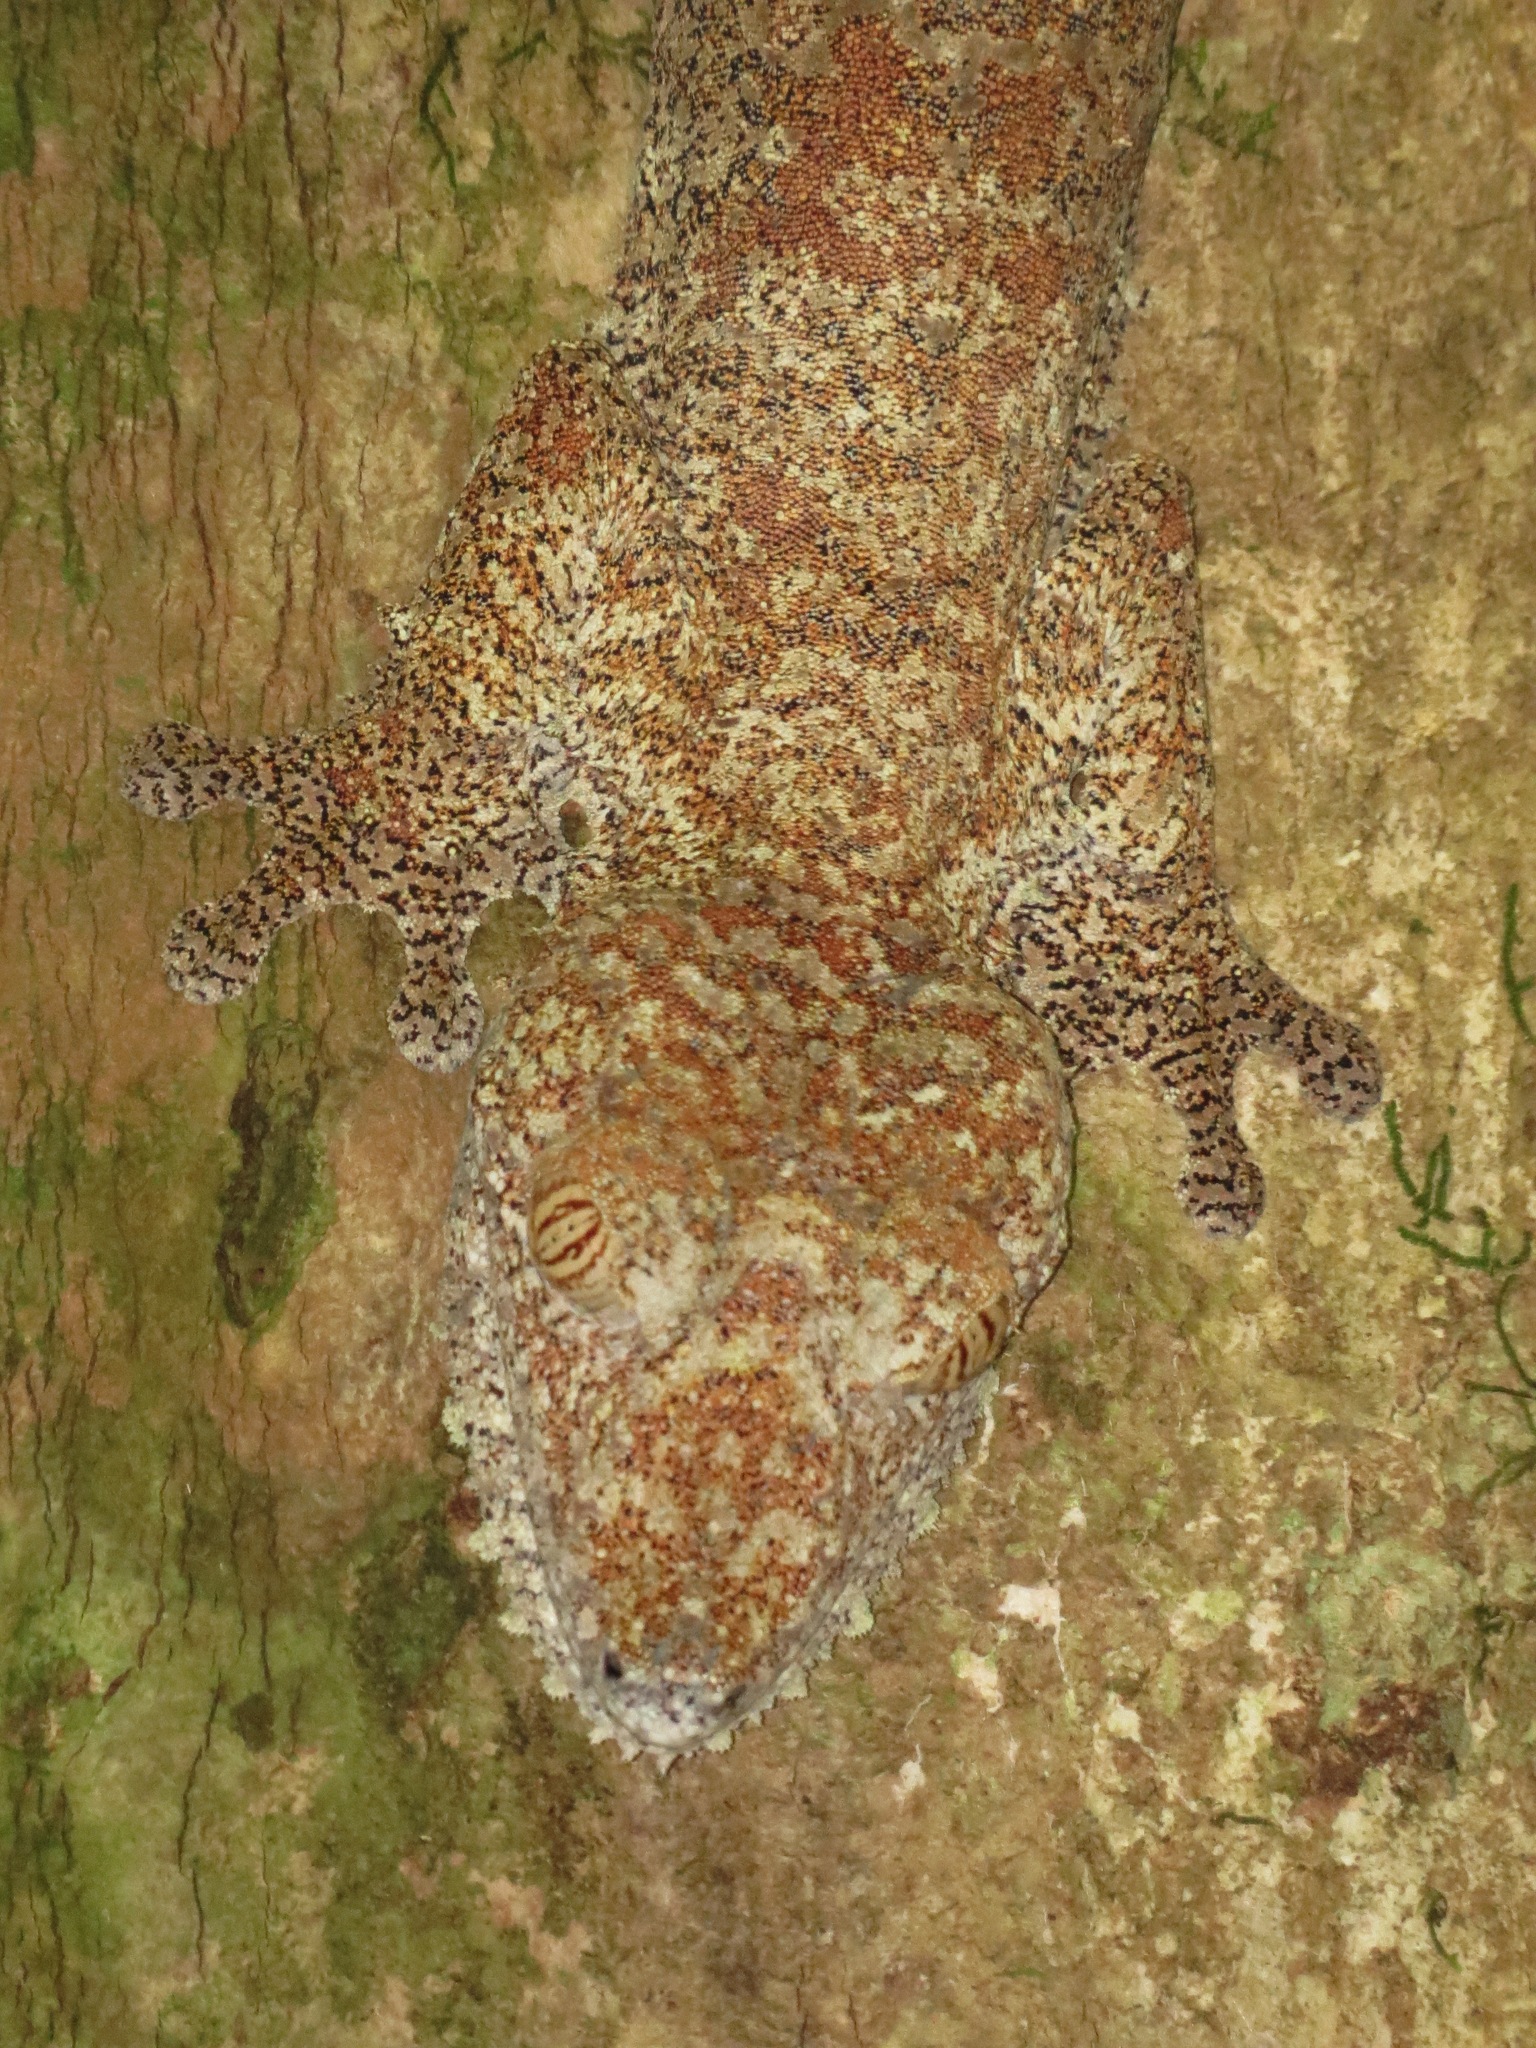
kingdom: Animalia
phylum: Chordata
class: Squamata
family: Gekkonidae
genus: Uroplatus
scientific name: Uroplatus giganteus
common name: Giant leaf-tail gecko
